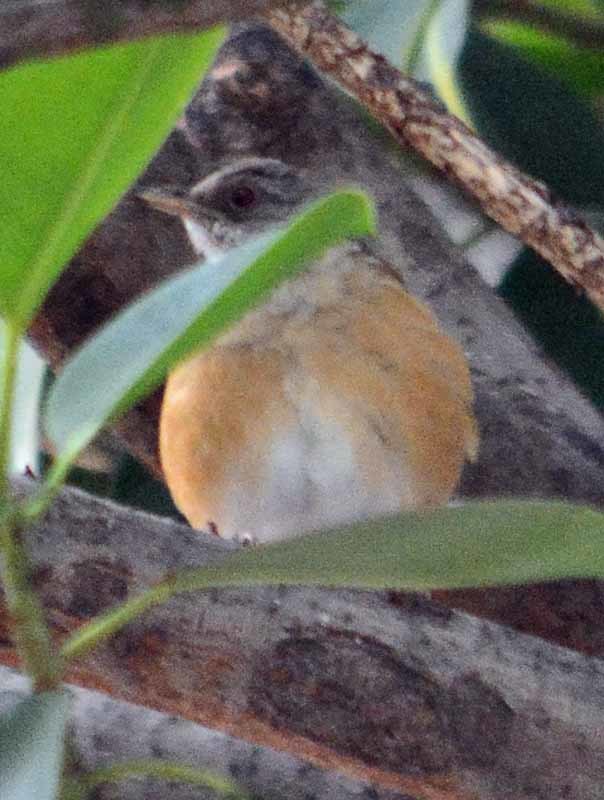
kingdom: Animalia
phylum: Chordata
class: Aves
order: Passeriformes
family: Turdidae
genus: Turdus
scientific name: Turdus rufopalliatus
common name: Rufous-backed robin
